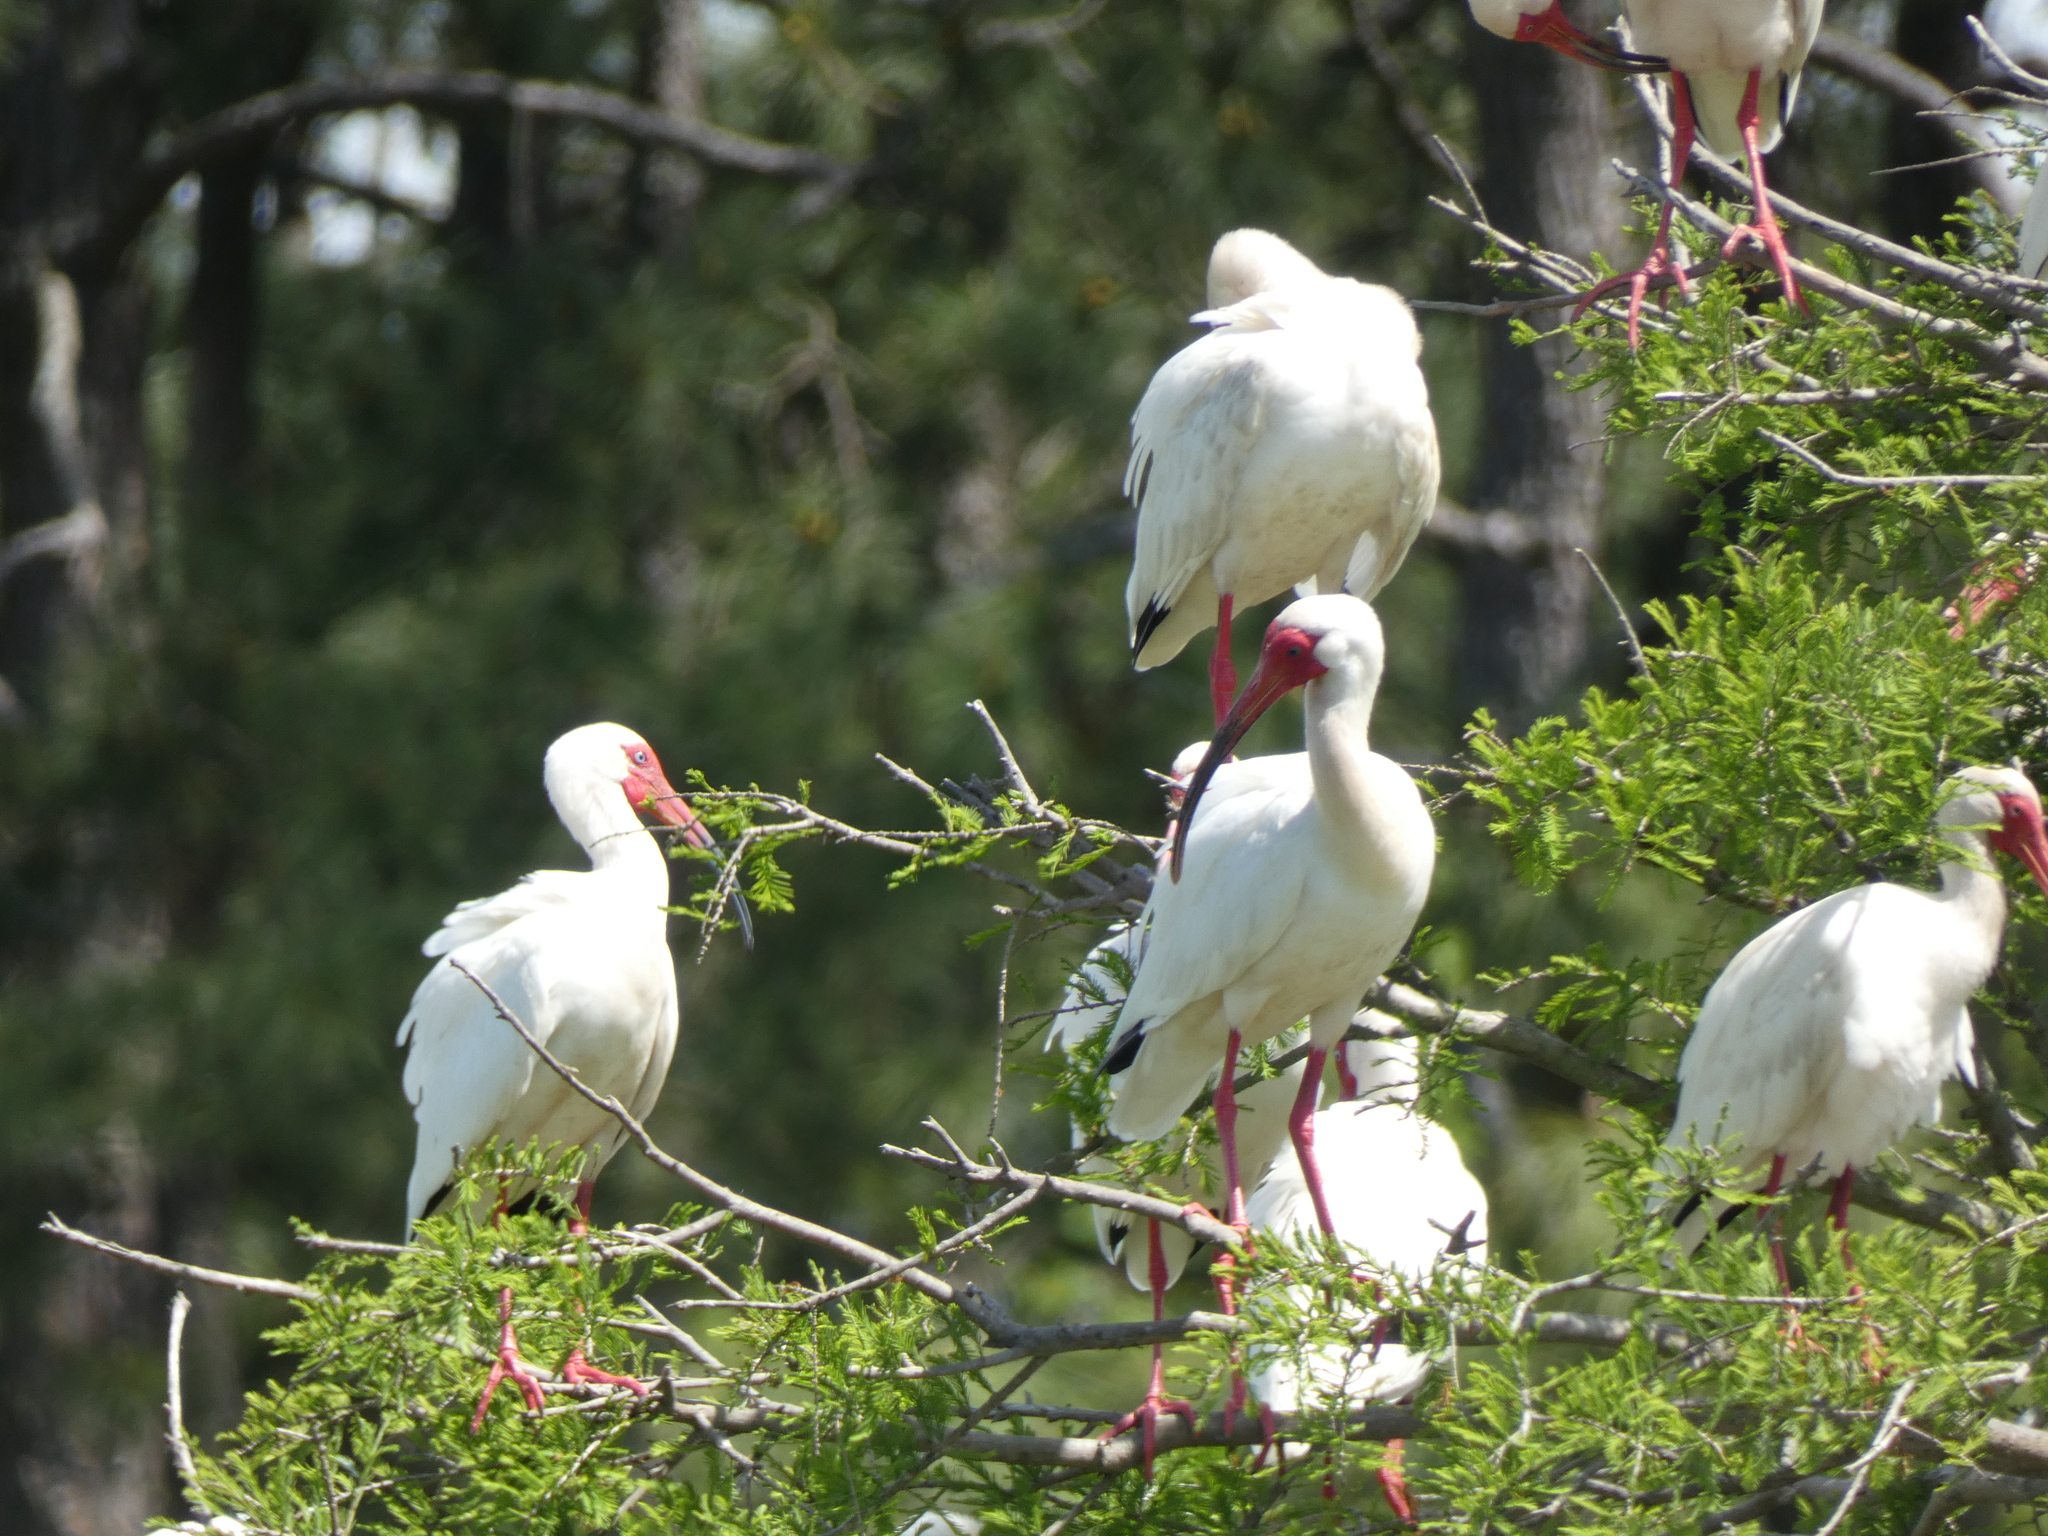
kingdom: Animalia
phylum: Chordata
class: Aves
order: Pelecaniformes
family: Threskiornithidae
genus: Eudocimus
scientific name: Eudocimus albus
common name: White ibis
